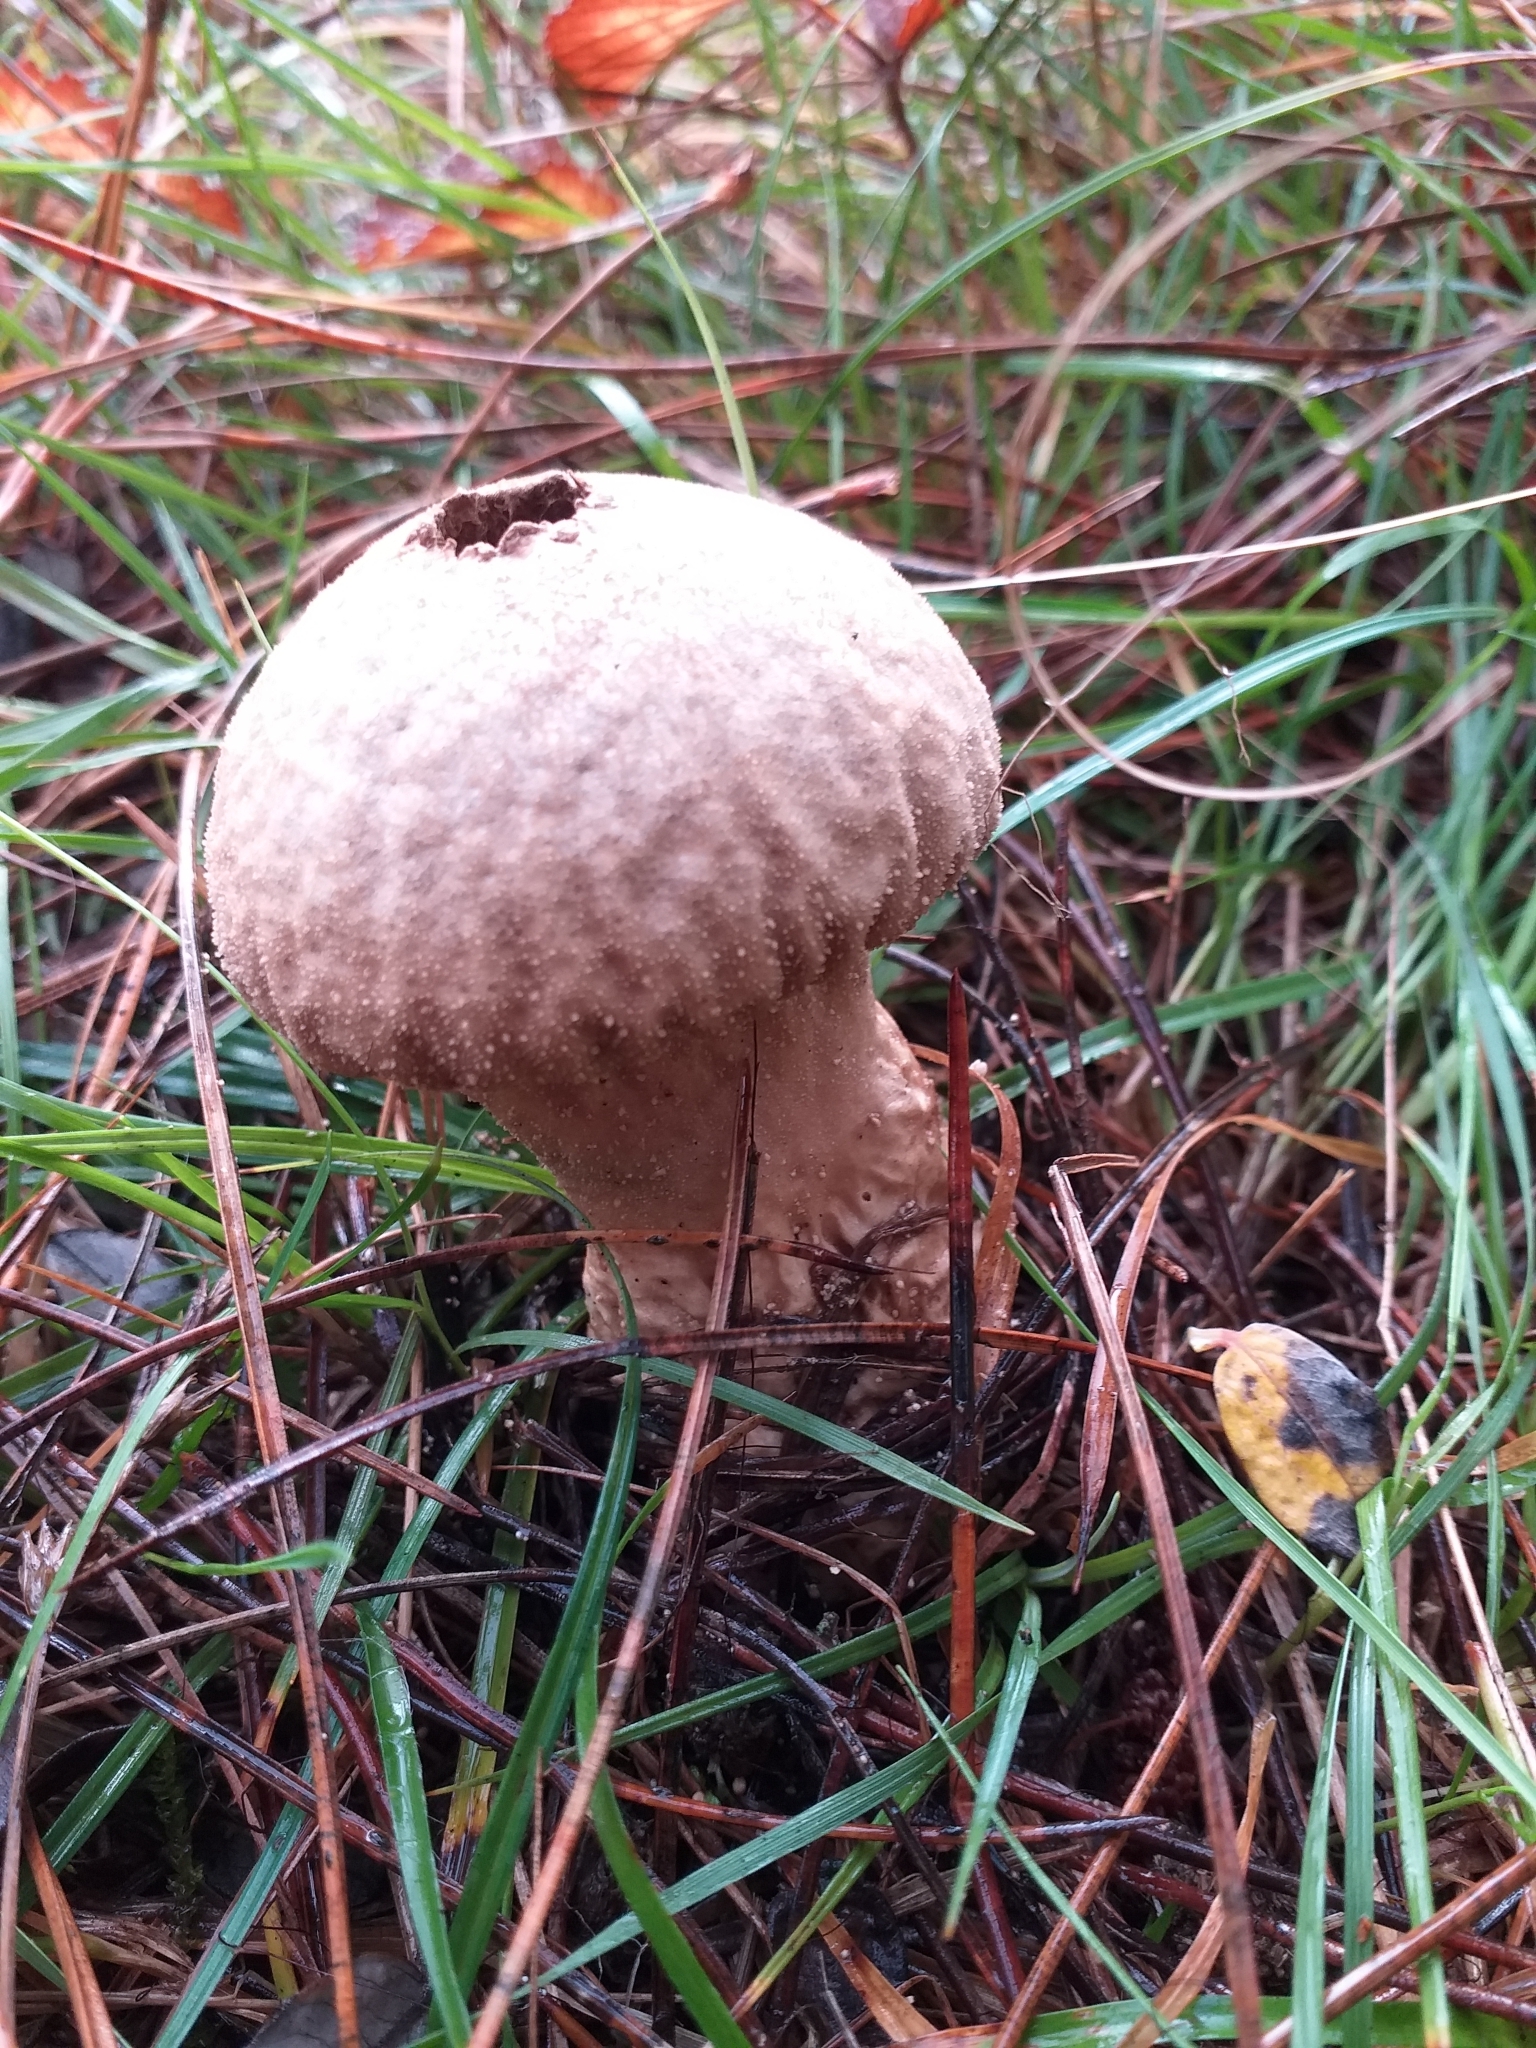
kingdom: Fungi
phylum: Basidiomycota
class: Agaricomycetes
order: Agaricales
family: Lycoperdaceae
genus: Lycoperdon
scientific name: Lycoperdon perlatum
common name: Common puffball
